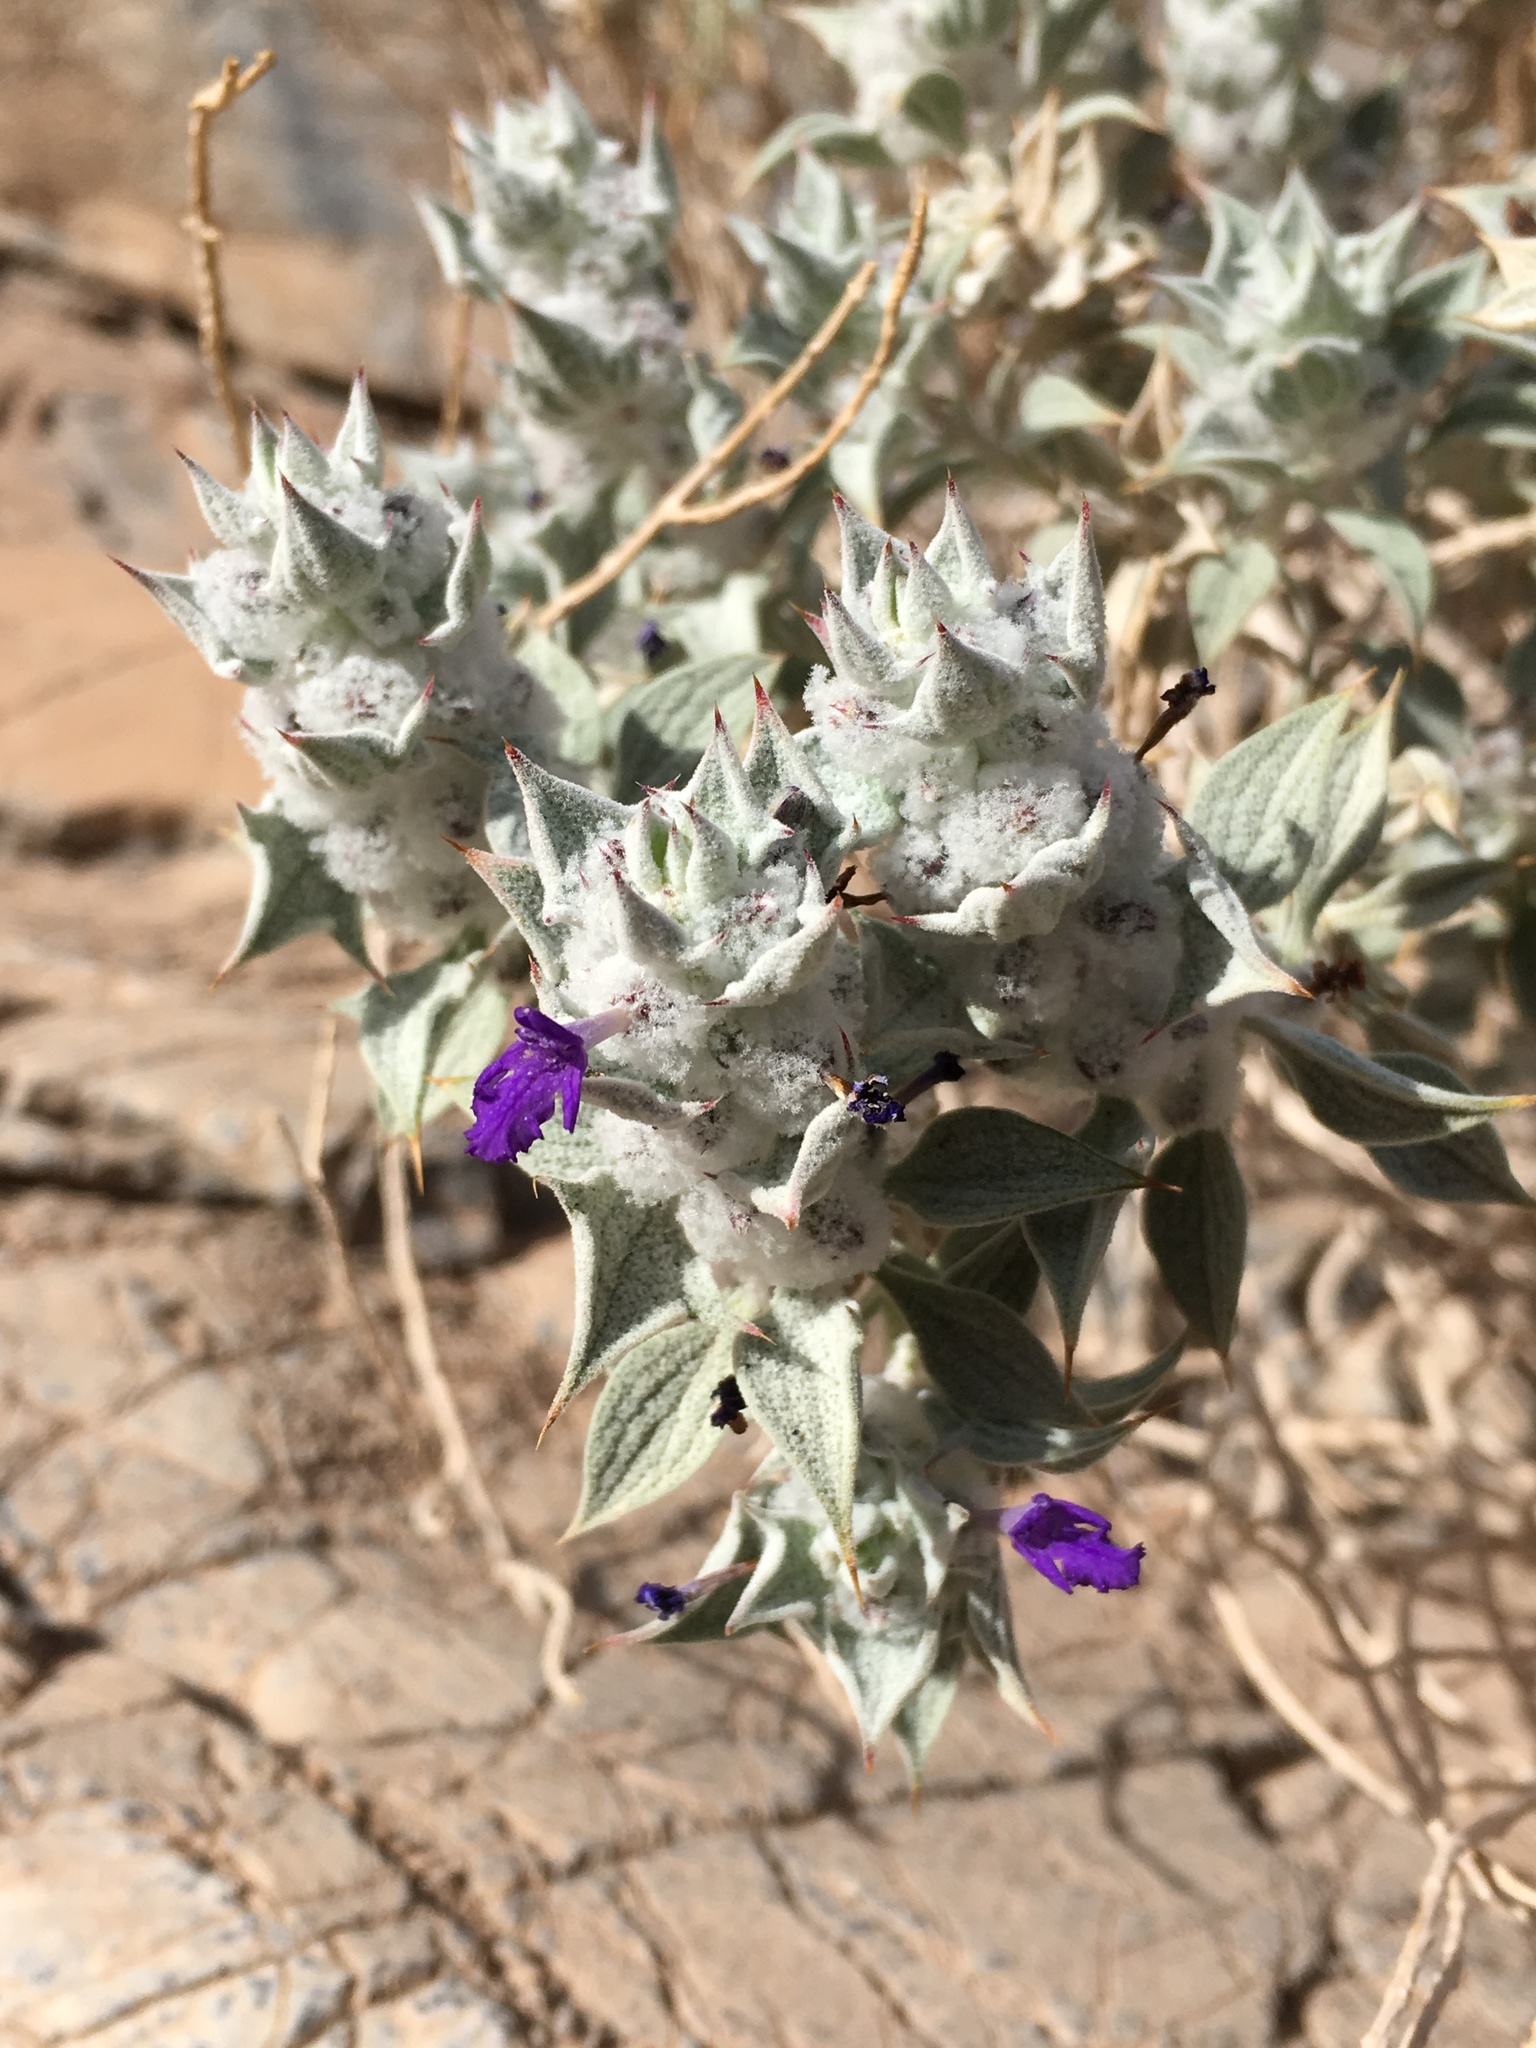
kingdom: Plantae
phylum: Tracheophyta
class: Magnoliopsida
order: Lamiales
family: Lamiaceae
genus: Salvia
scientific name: Salvia funerea
